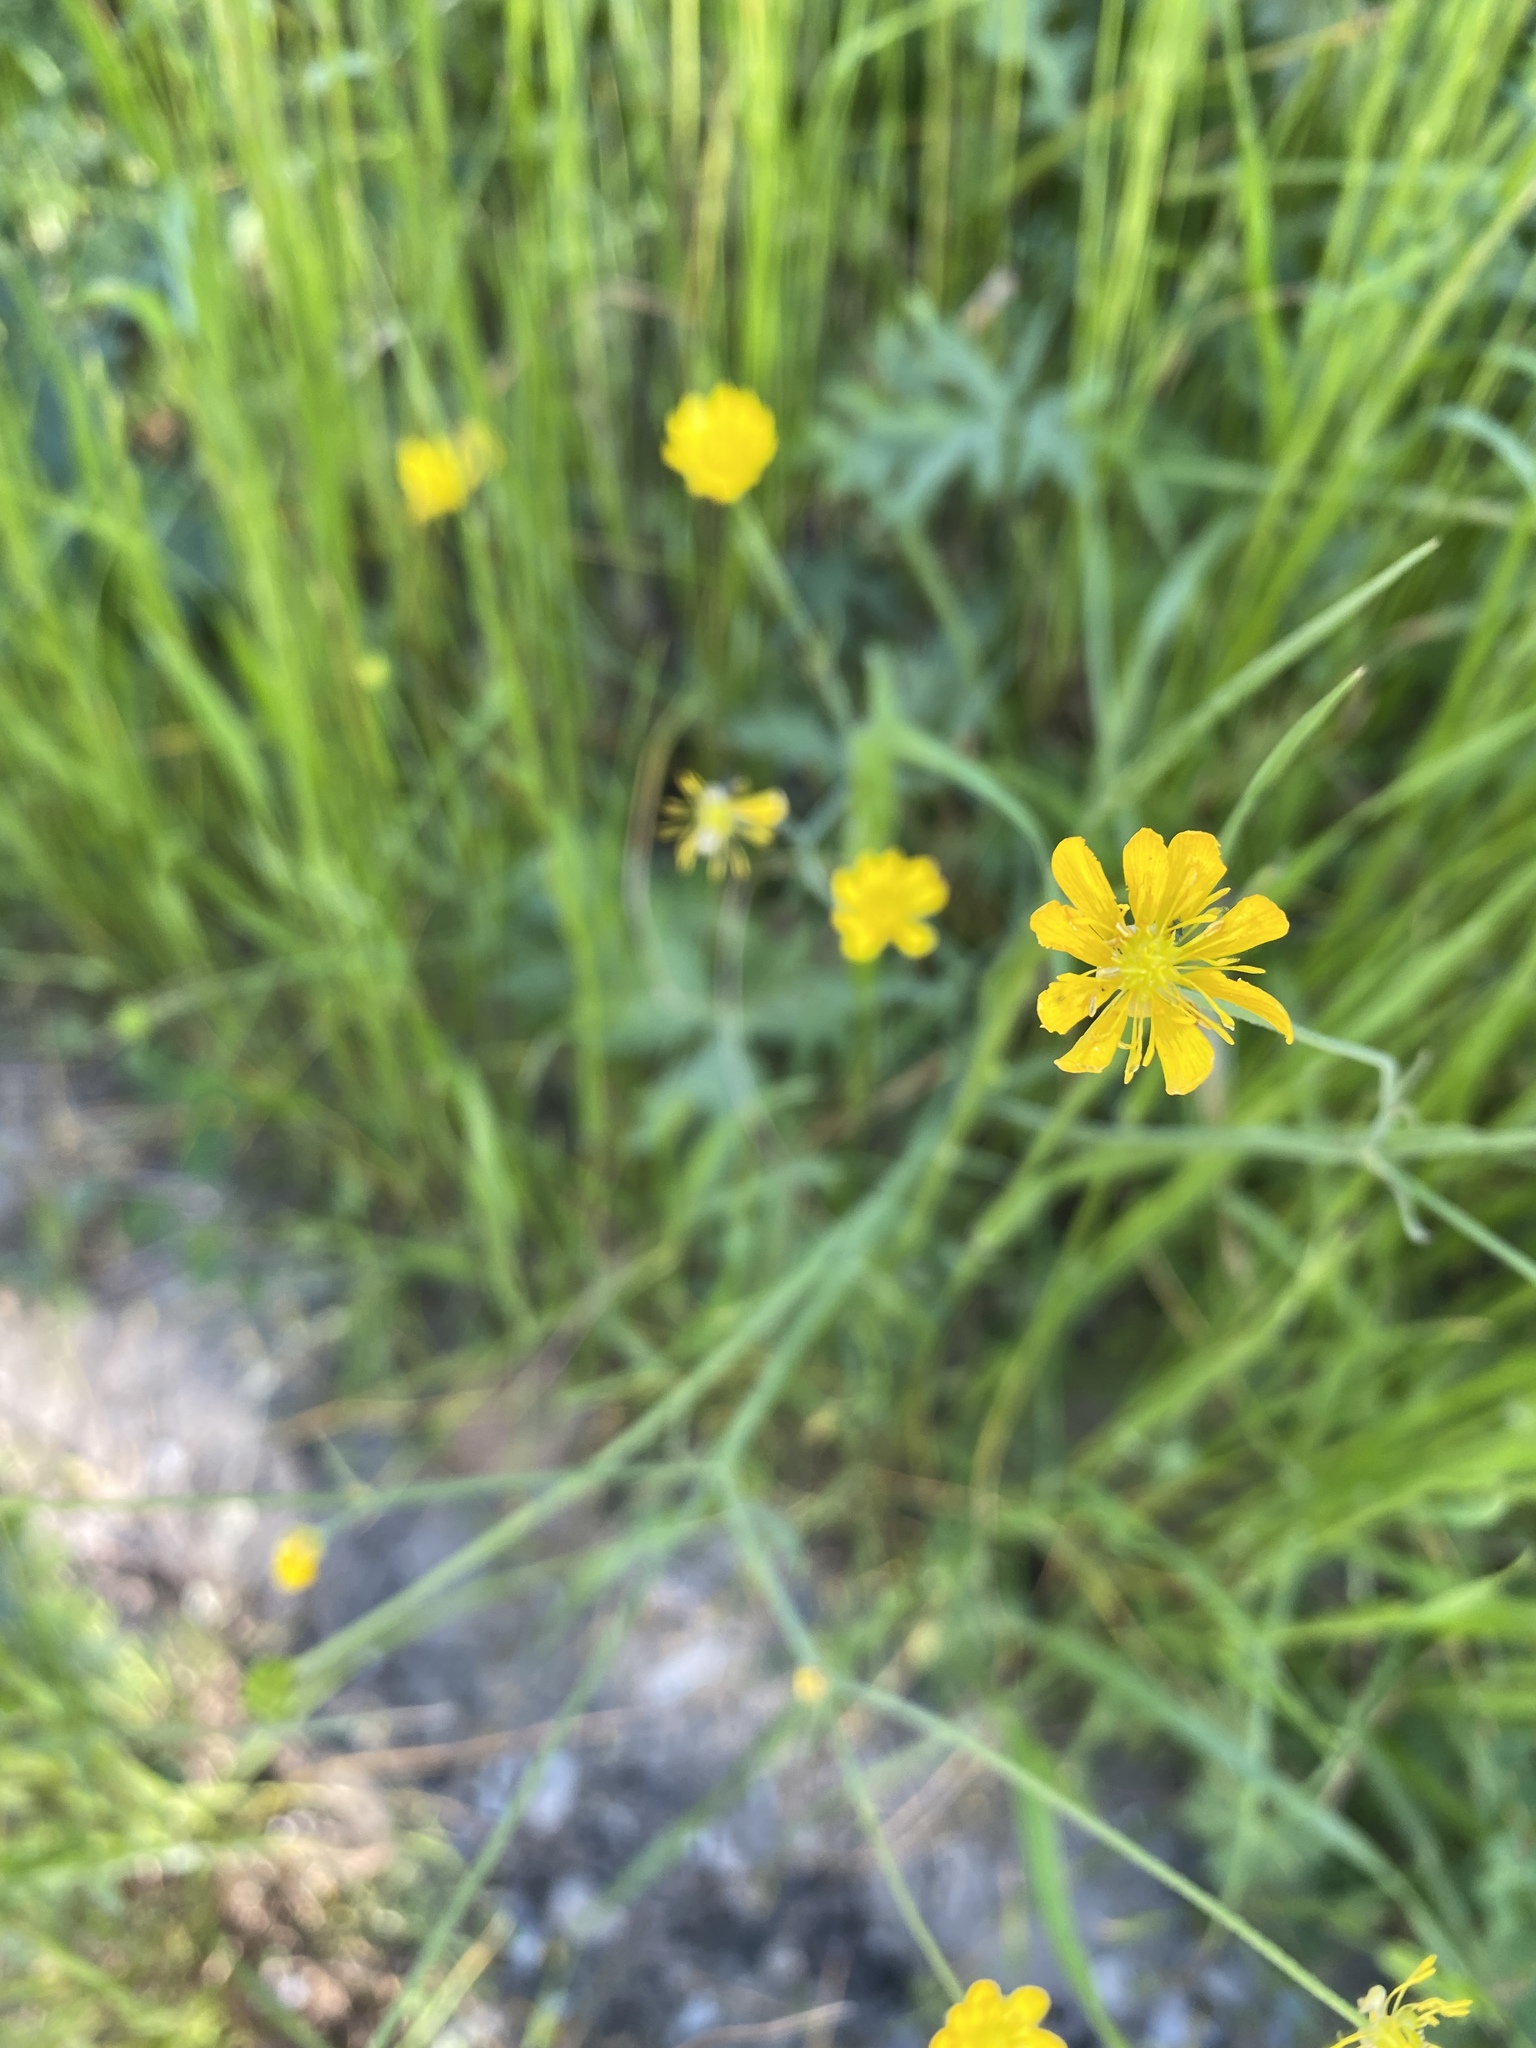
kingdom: Plantae
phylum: Tracheophyta
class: Magnoliopsida
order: Ranunculales
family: Ranunculaceae
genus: Ranunculus
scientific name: Ranunculus californicus
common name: California buttercup
